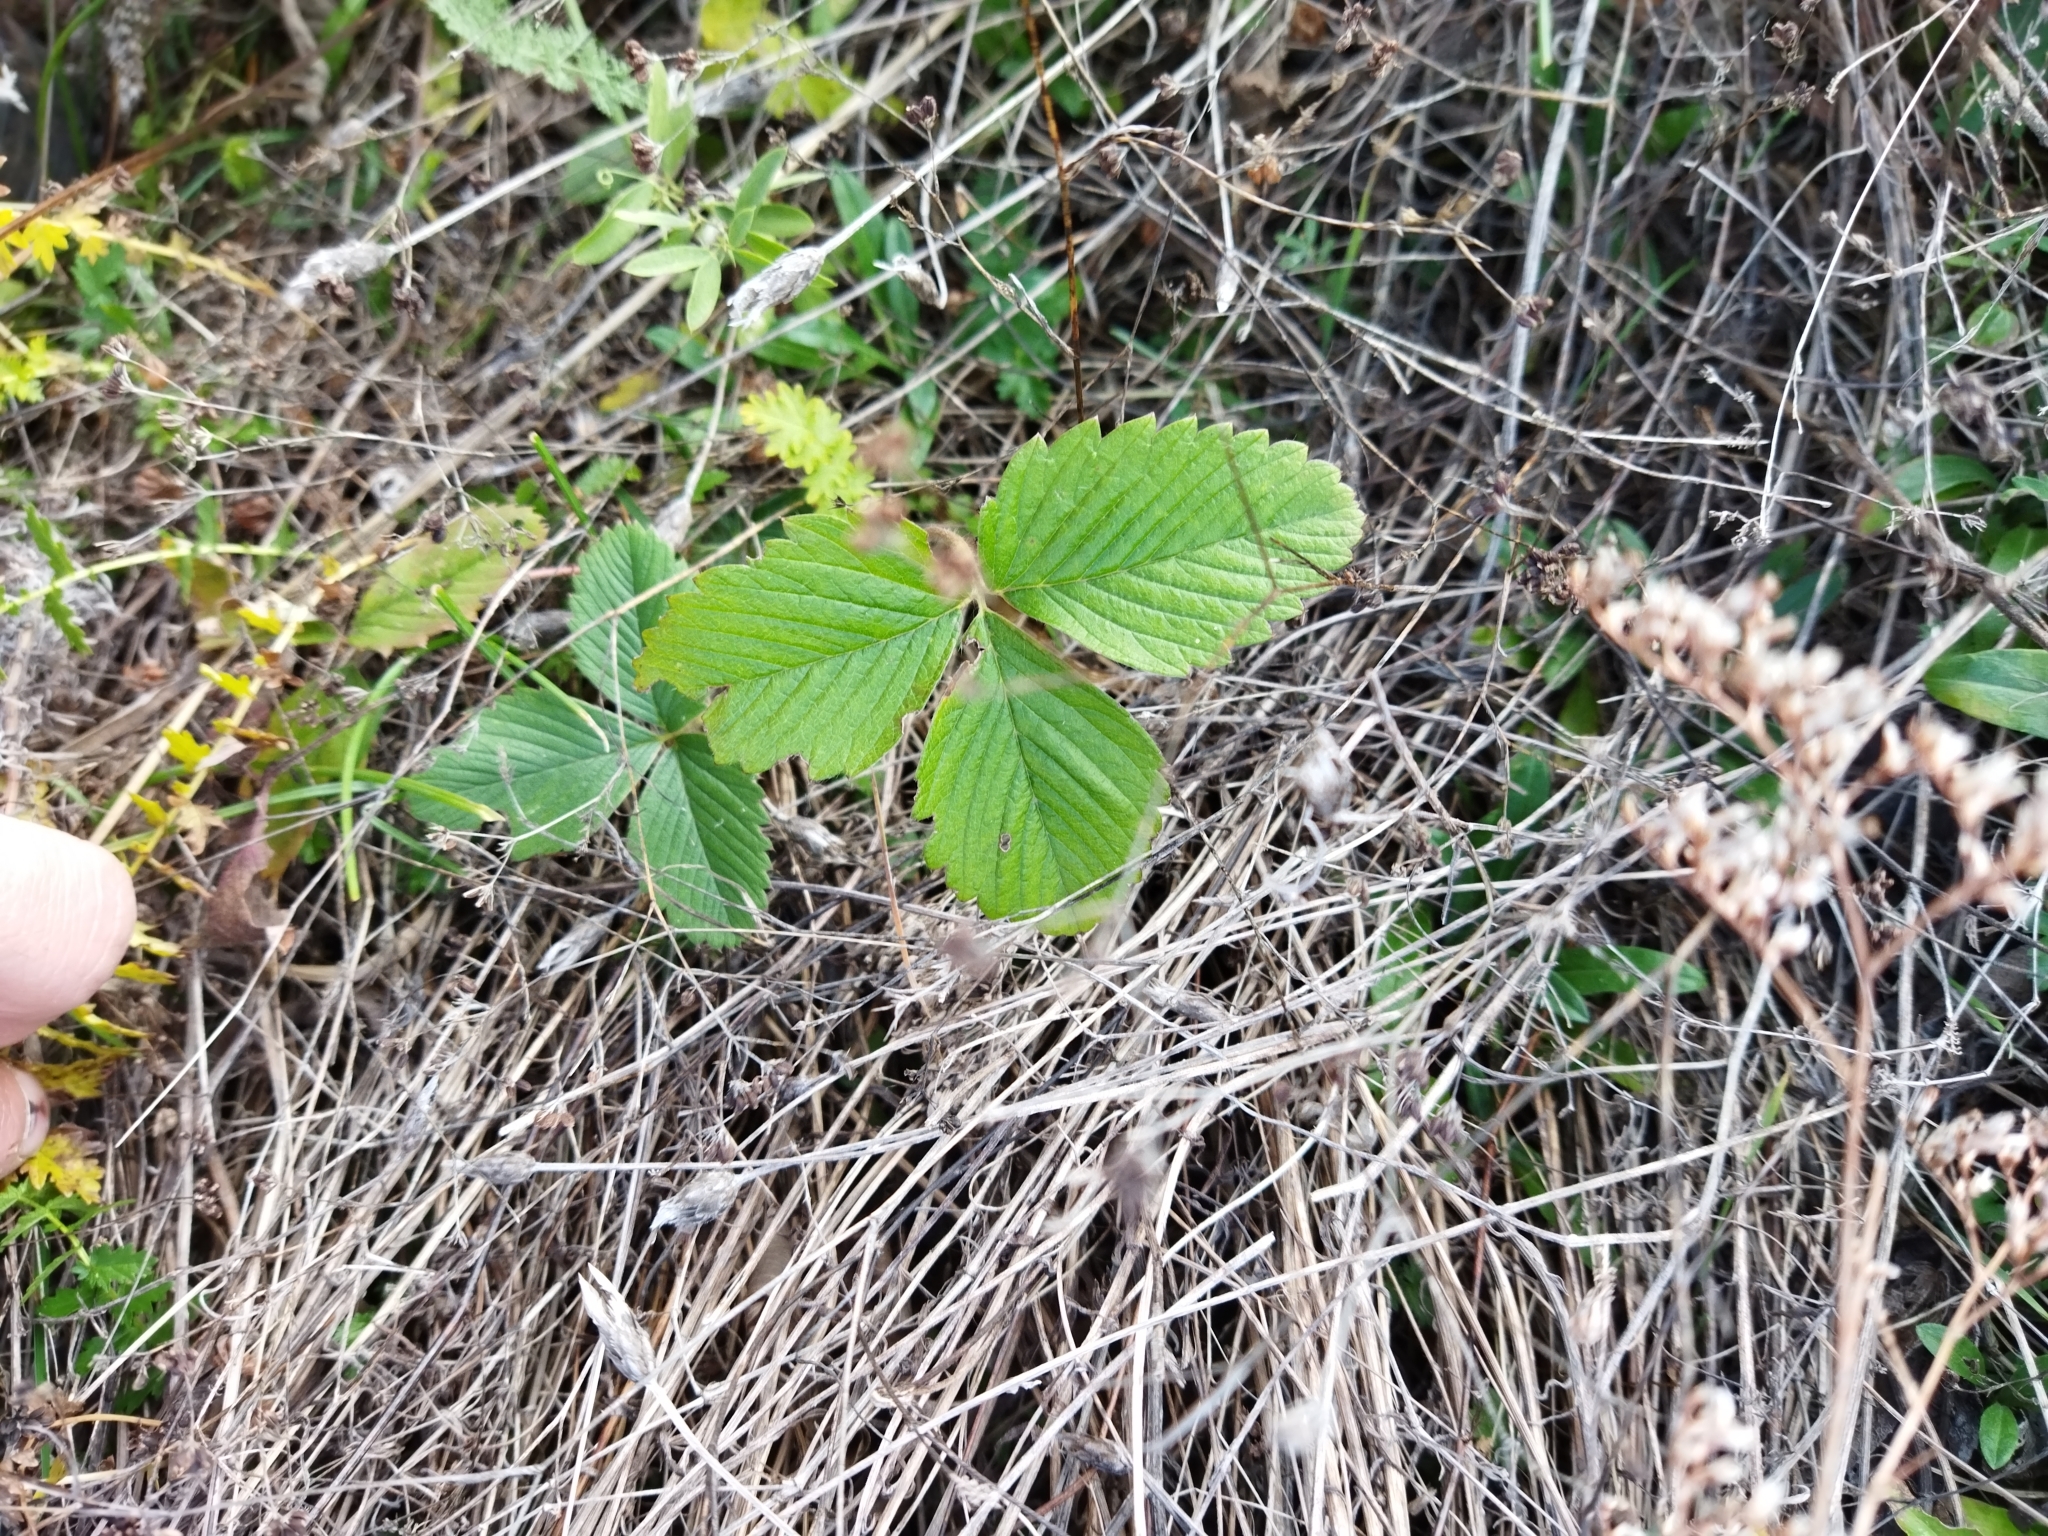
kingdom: Plantae
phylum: Tracheophyta
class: Magnoliopsida
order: Rosales
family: Rosaceae
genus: Fragaria
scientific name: Fragaria viridis
